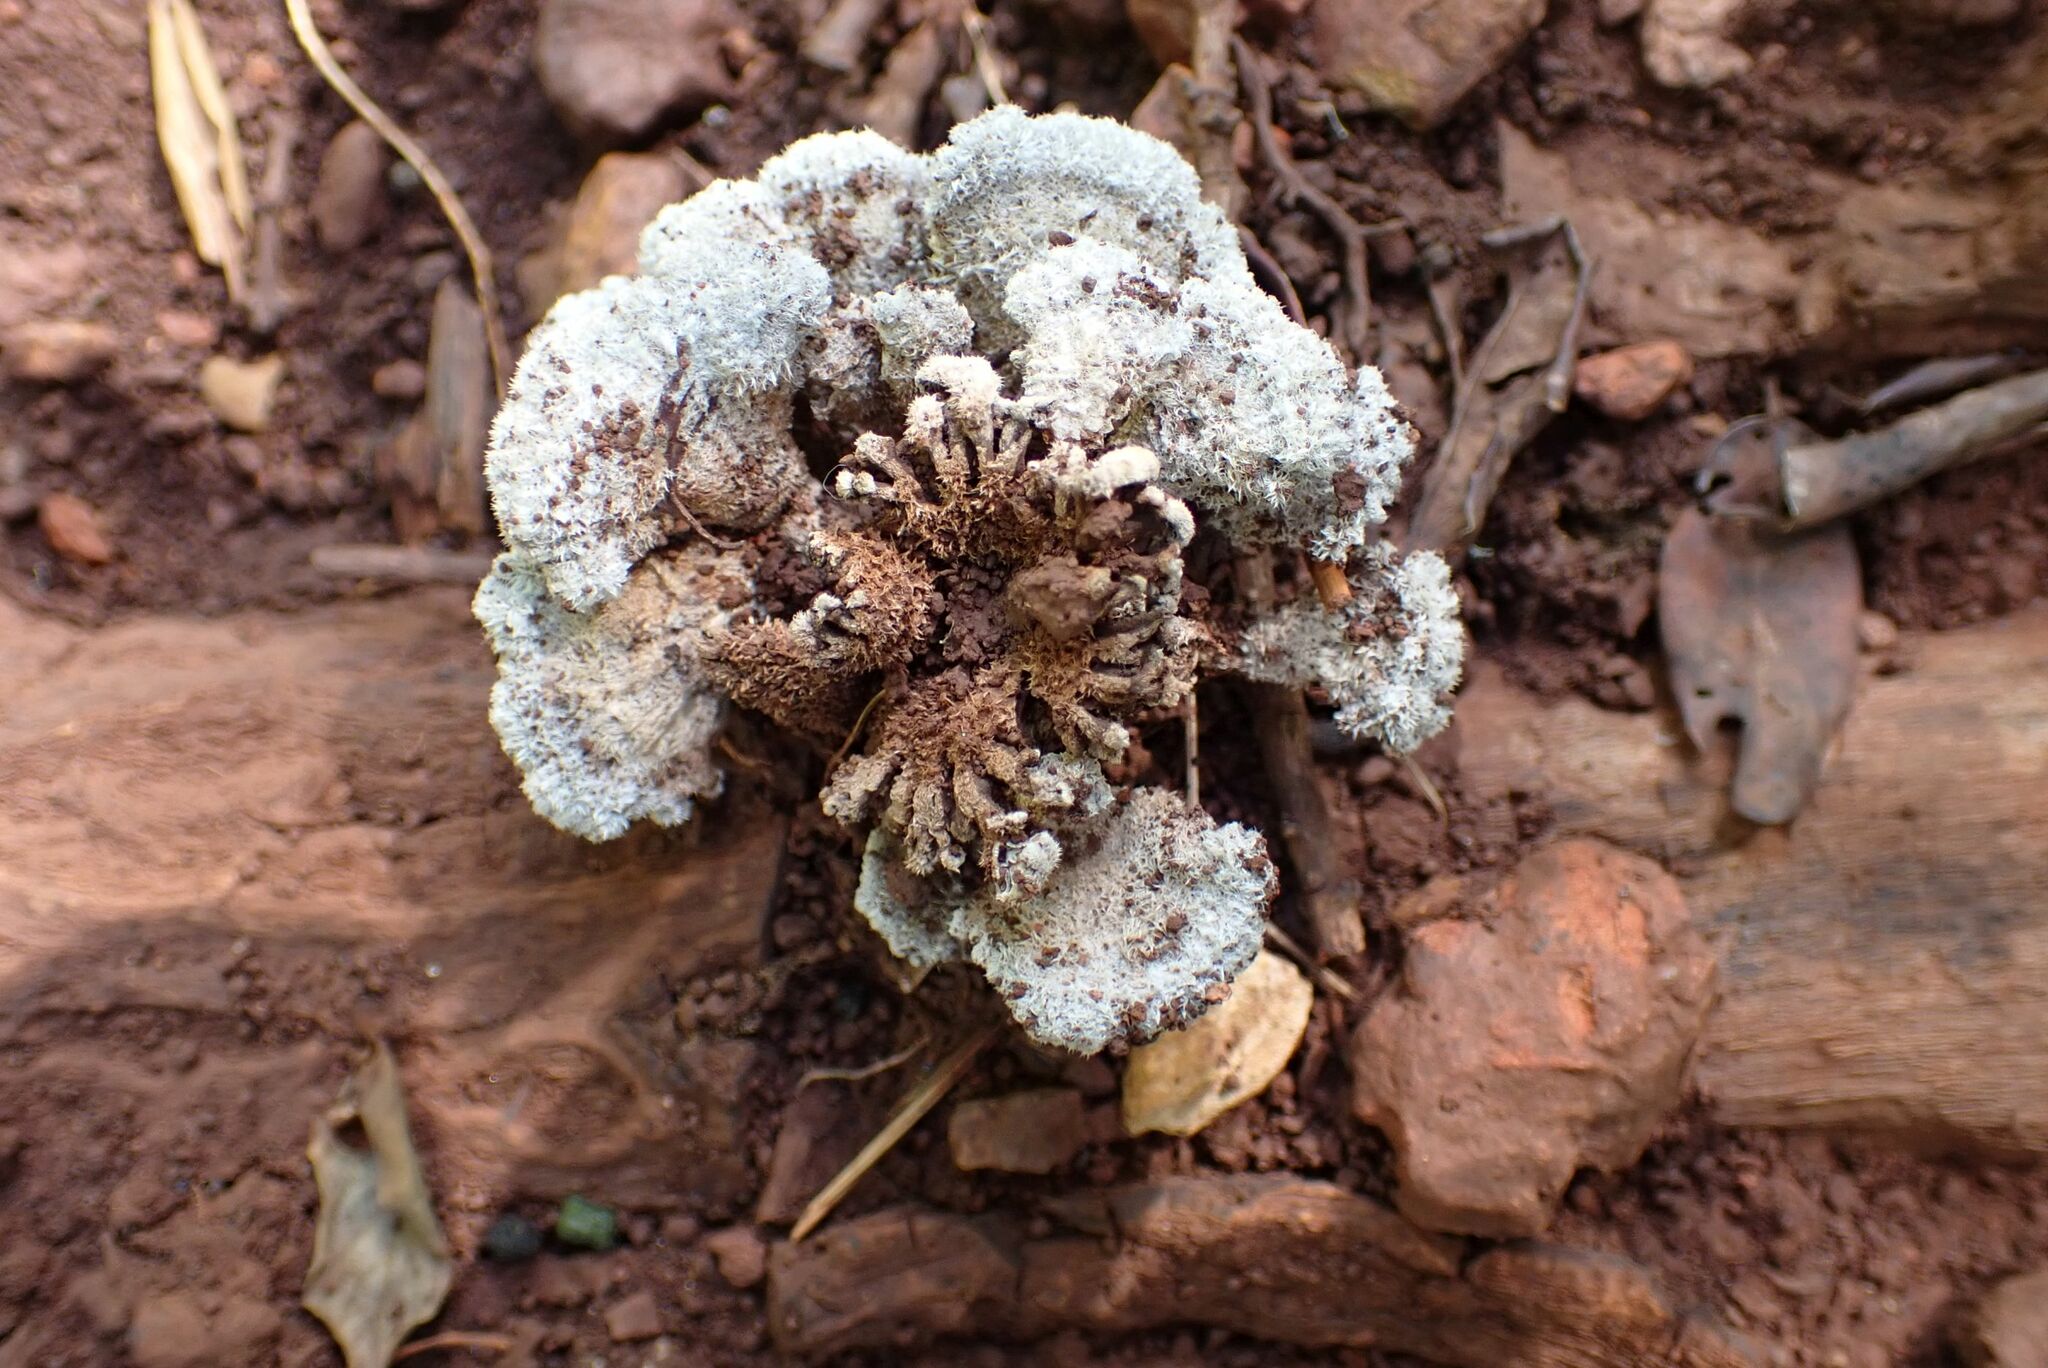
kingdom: Fungi
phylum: Basidiomycota
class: Agaricomycetes
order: Agaricales
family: Schizophyllaceae
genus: Schizophyllum
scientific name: Schizophyllum commune
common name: Common porecrust
